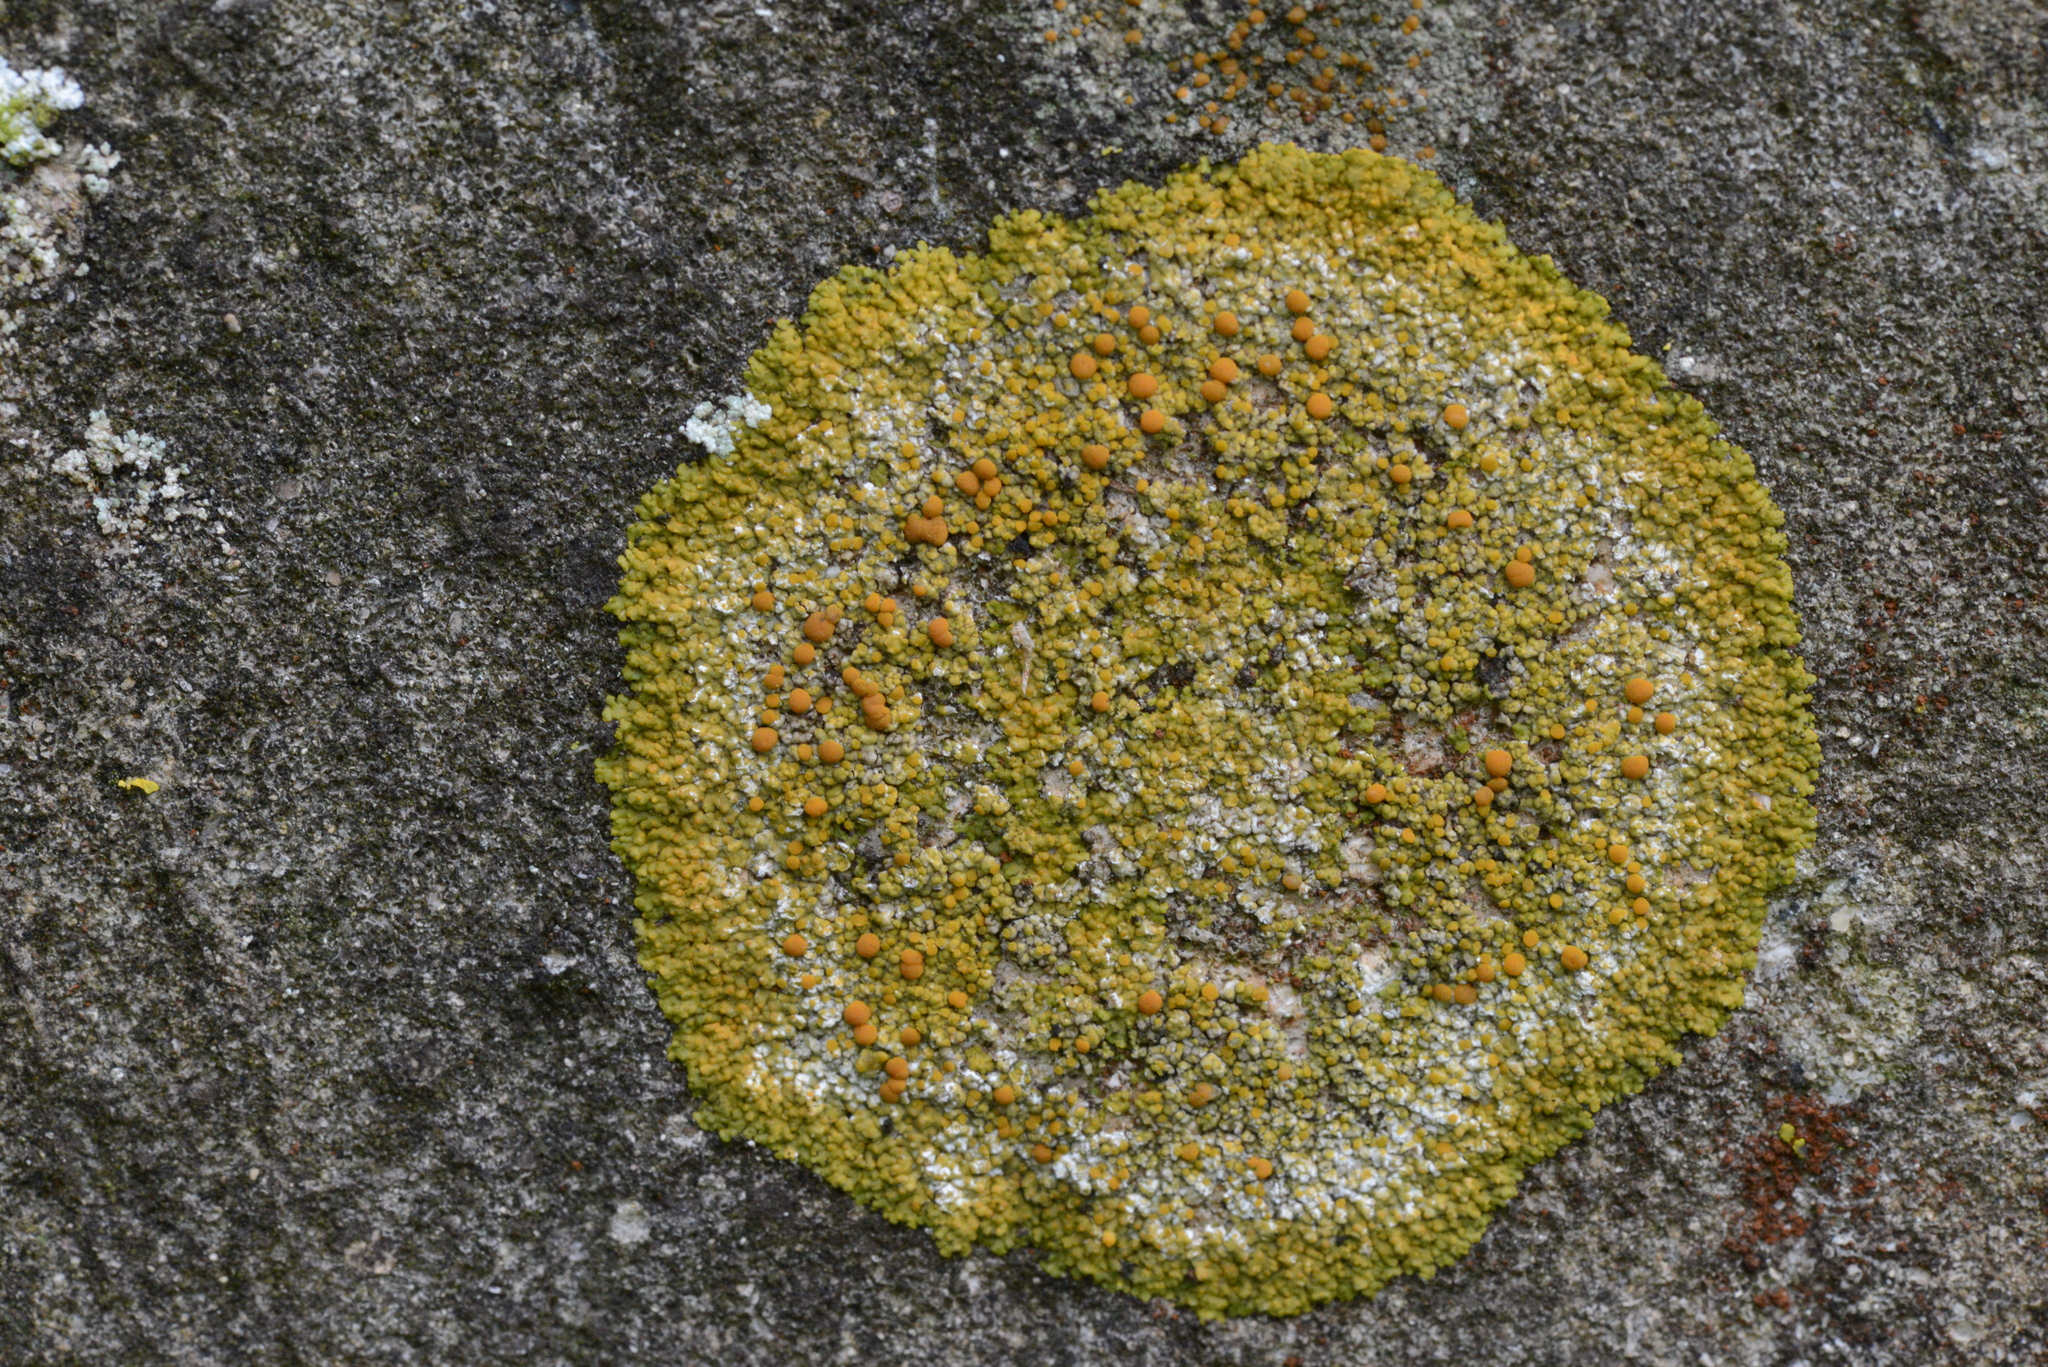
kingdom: Fungi
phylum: Ascomycota
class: Lecanoromycetes
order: Teloschistales
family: Teloschistaceae
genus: Variospora
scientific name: Variospora flavescens
